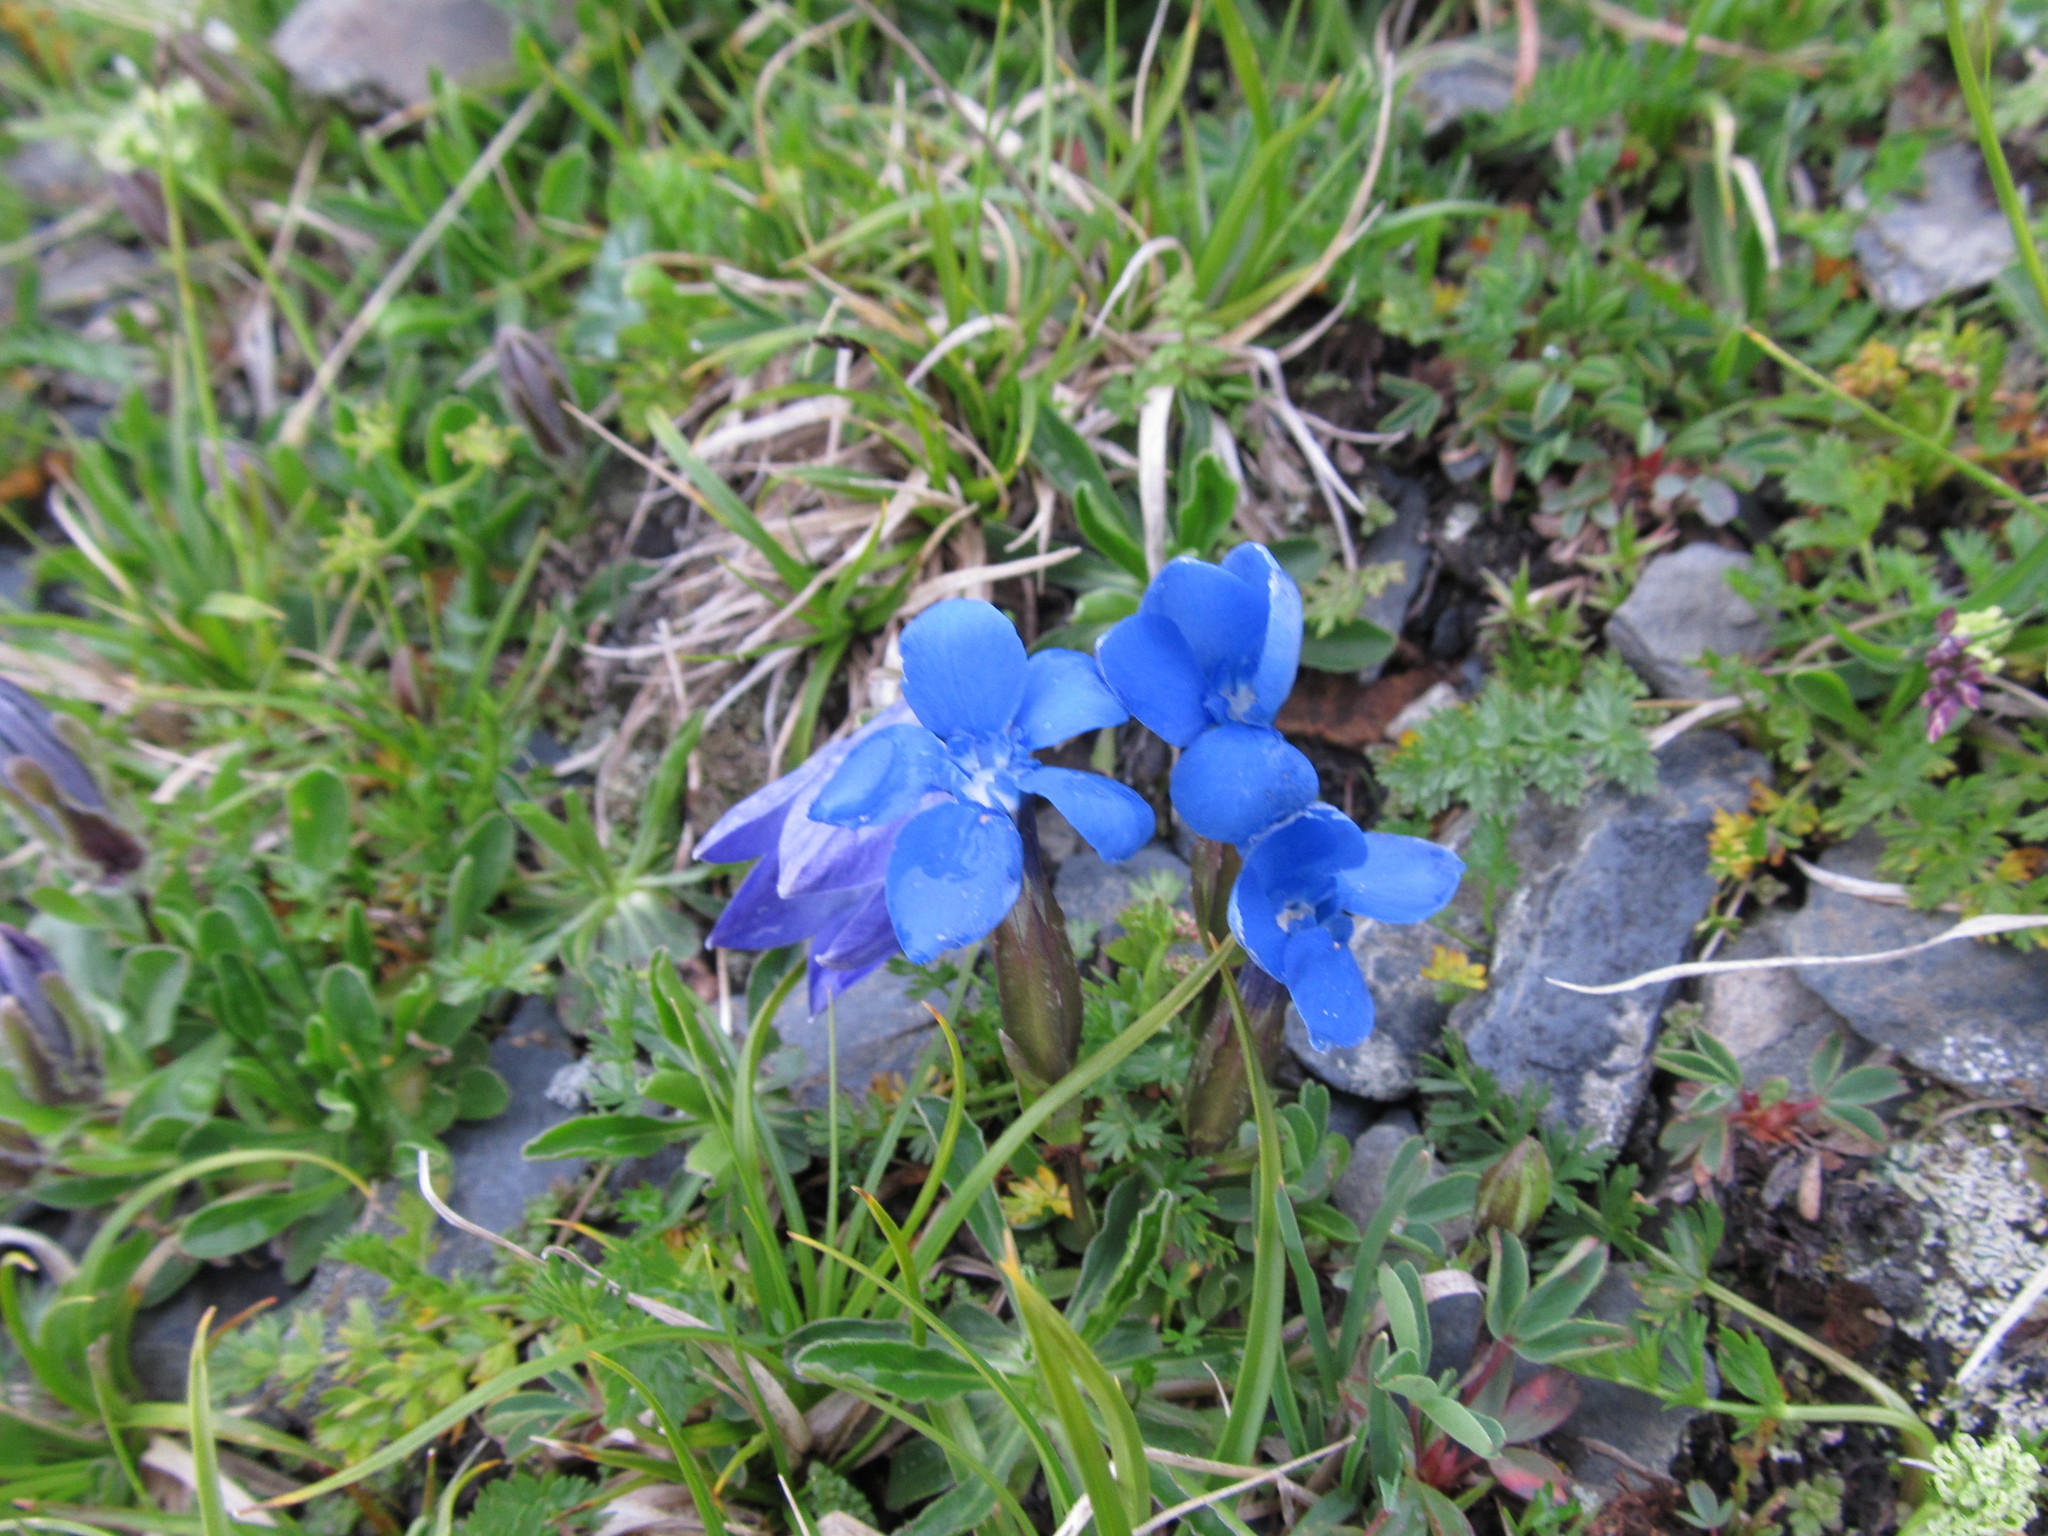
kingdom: Plantae
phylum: Tracheophyta
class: Magnoliopsida
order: Gentianales
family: Gentianaceae
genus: Gentiana
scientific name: Gentiana verna
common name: Spring gentian
